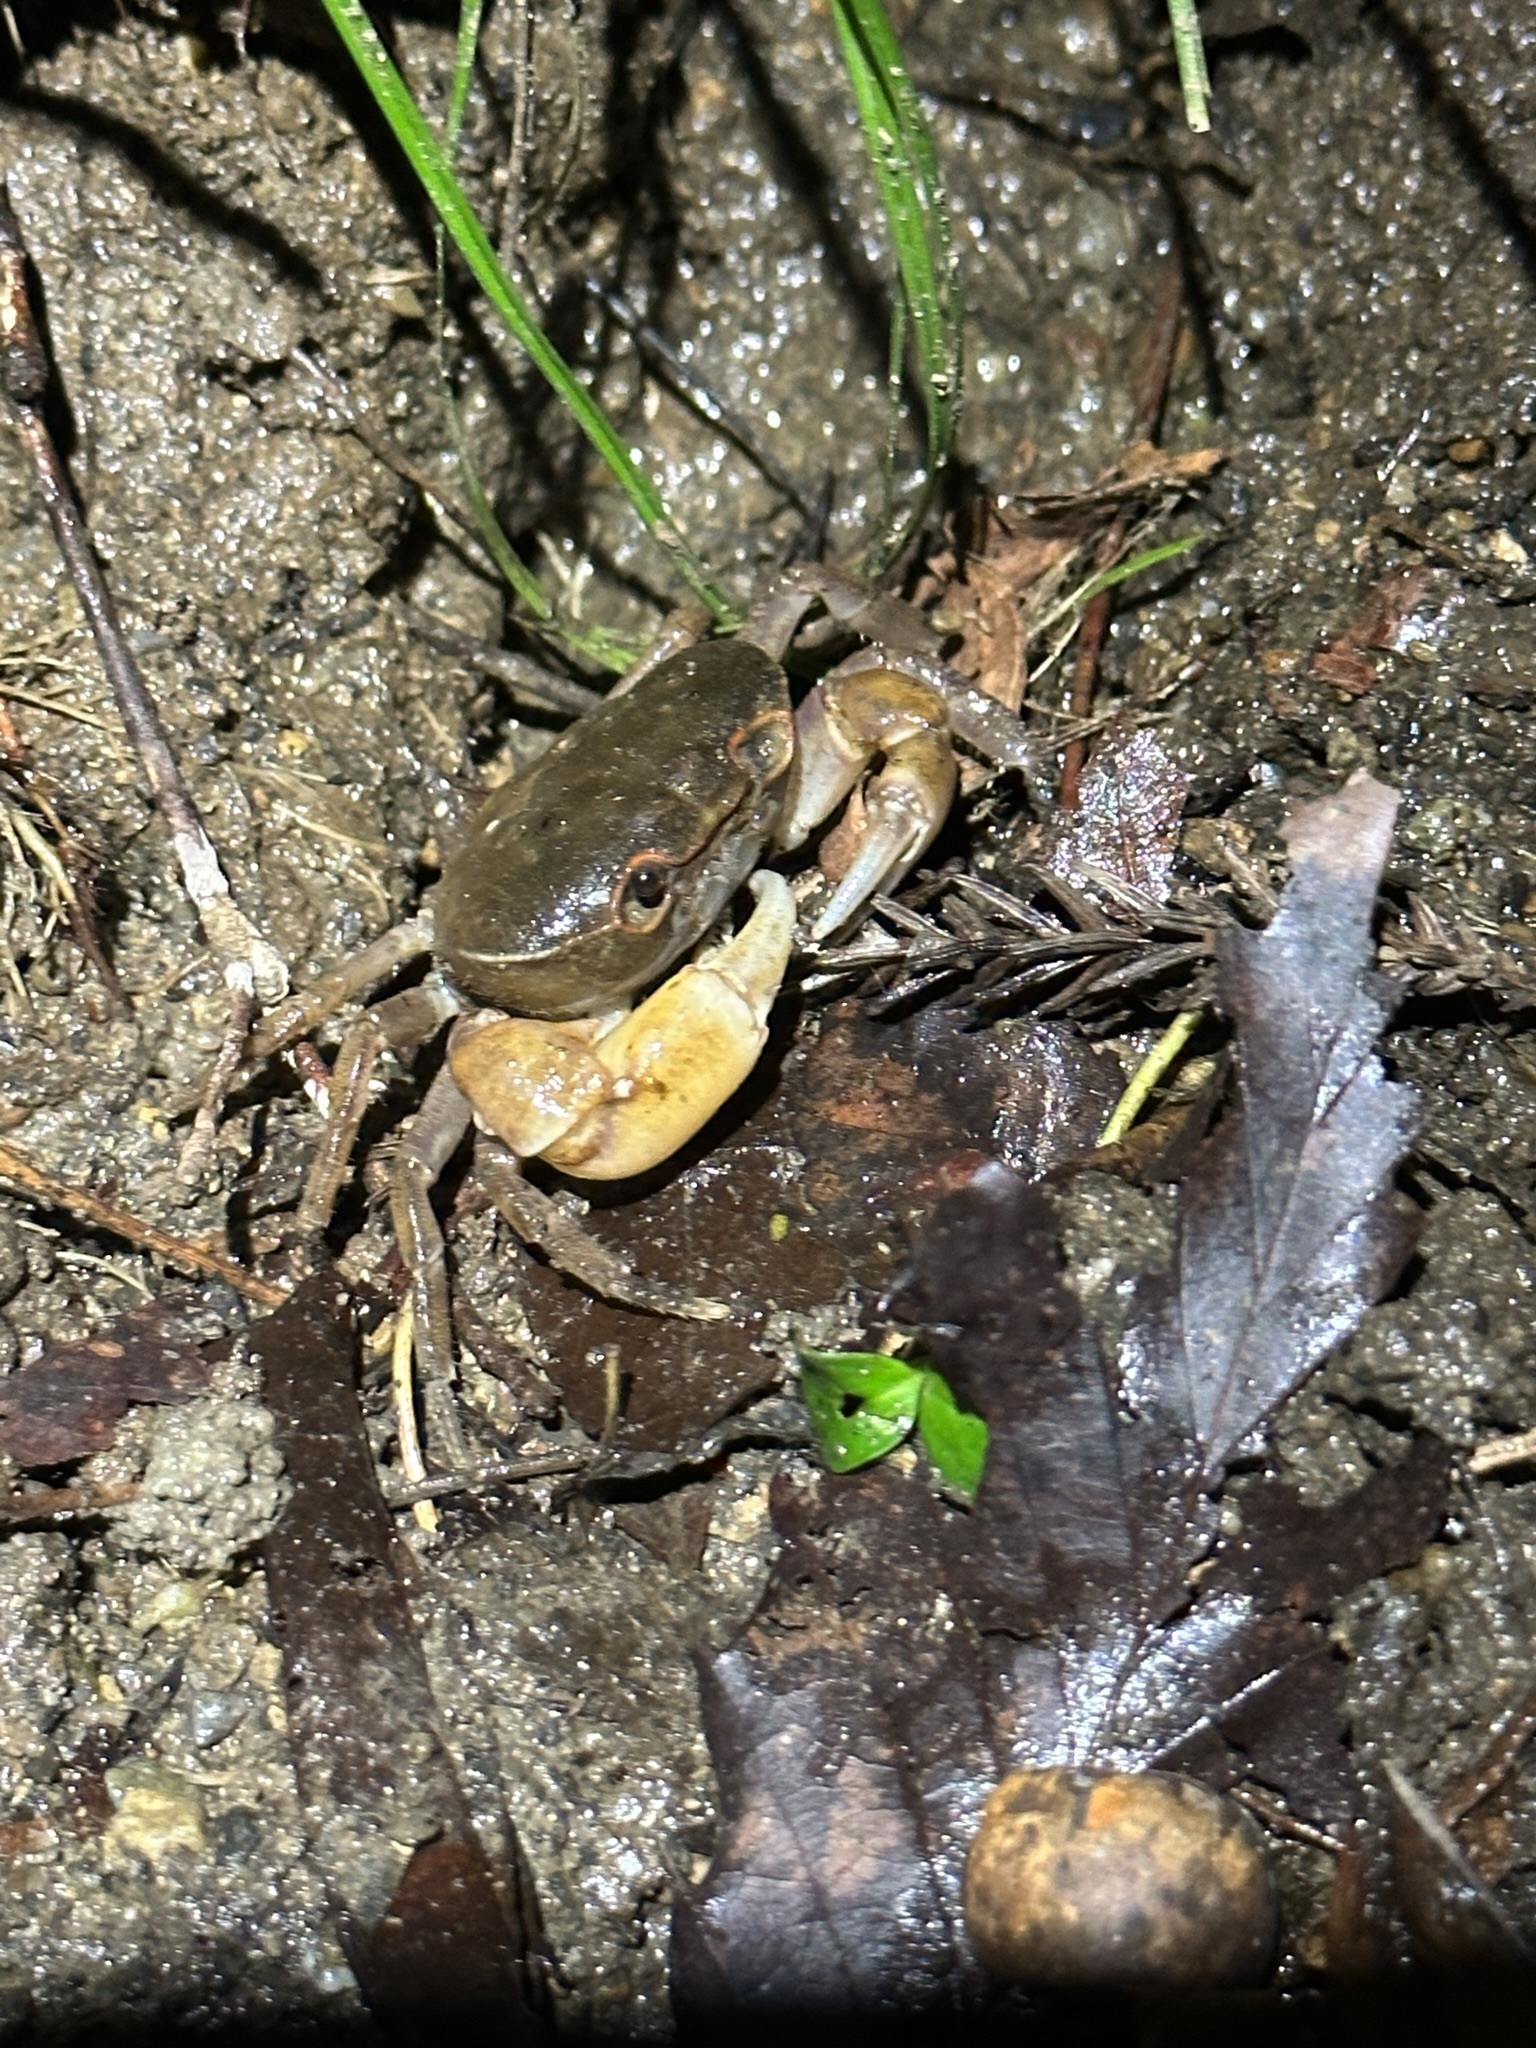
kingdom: Animalia
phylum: Arthropoda
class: Malacostraca
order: Decapoda
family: Potamidae
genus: Geothelphusa
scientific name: Geothelphusa dehaani
